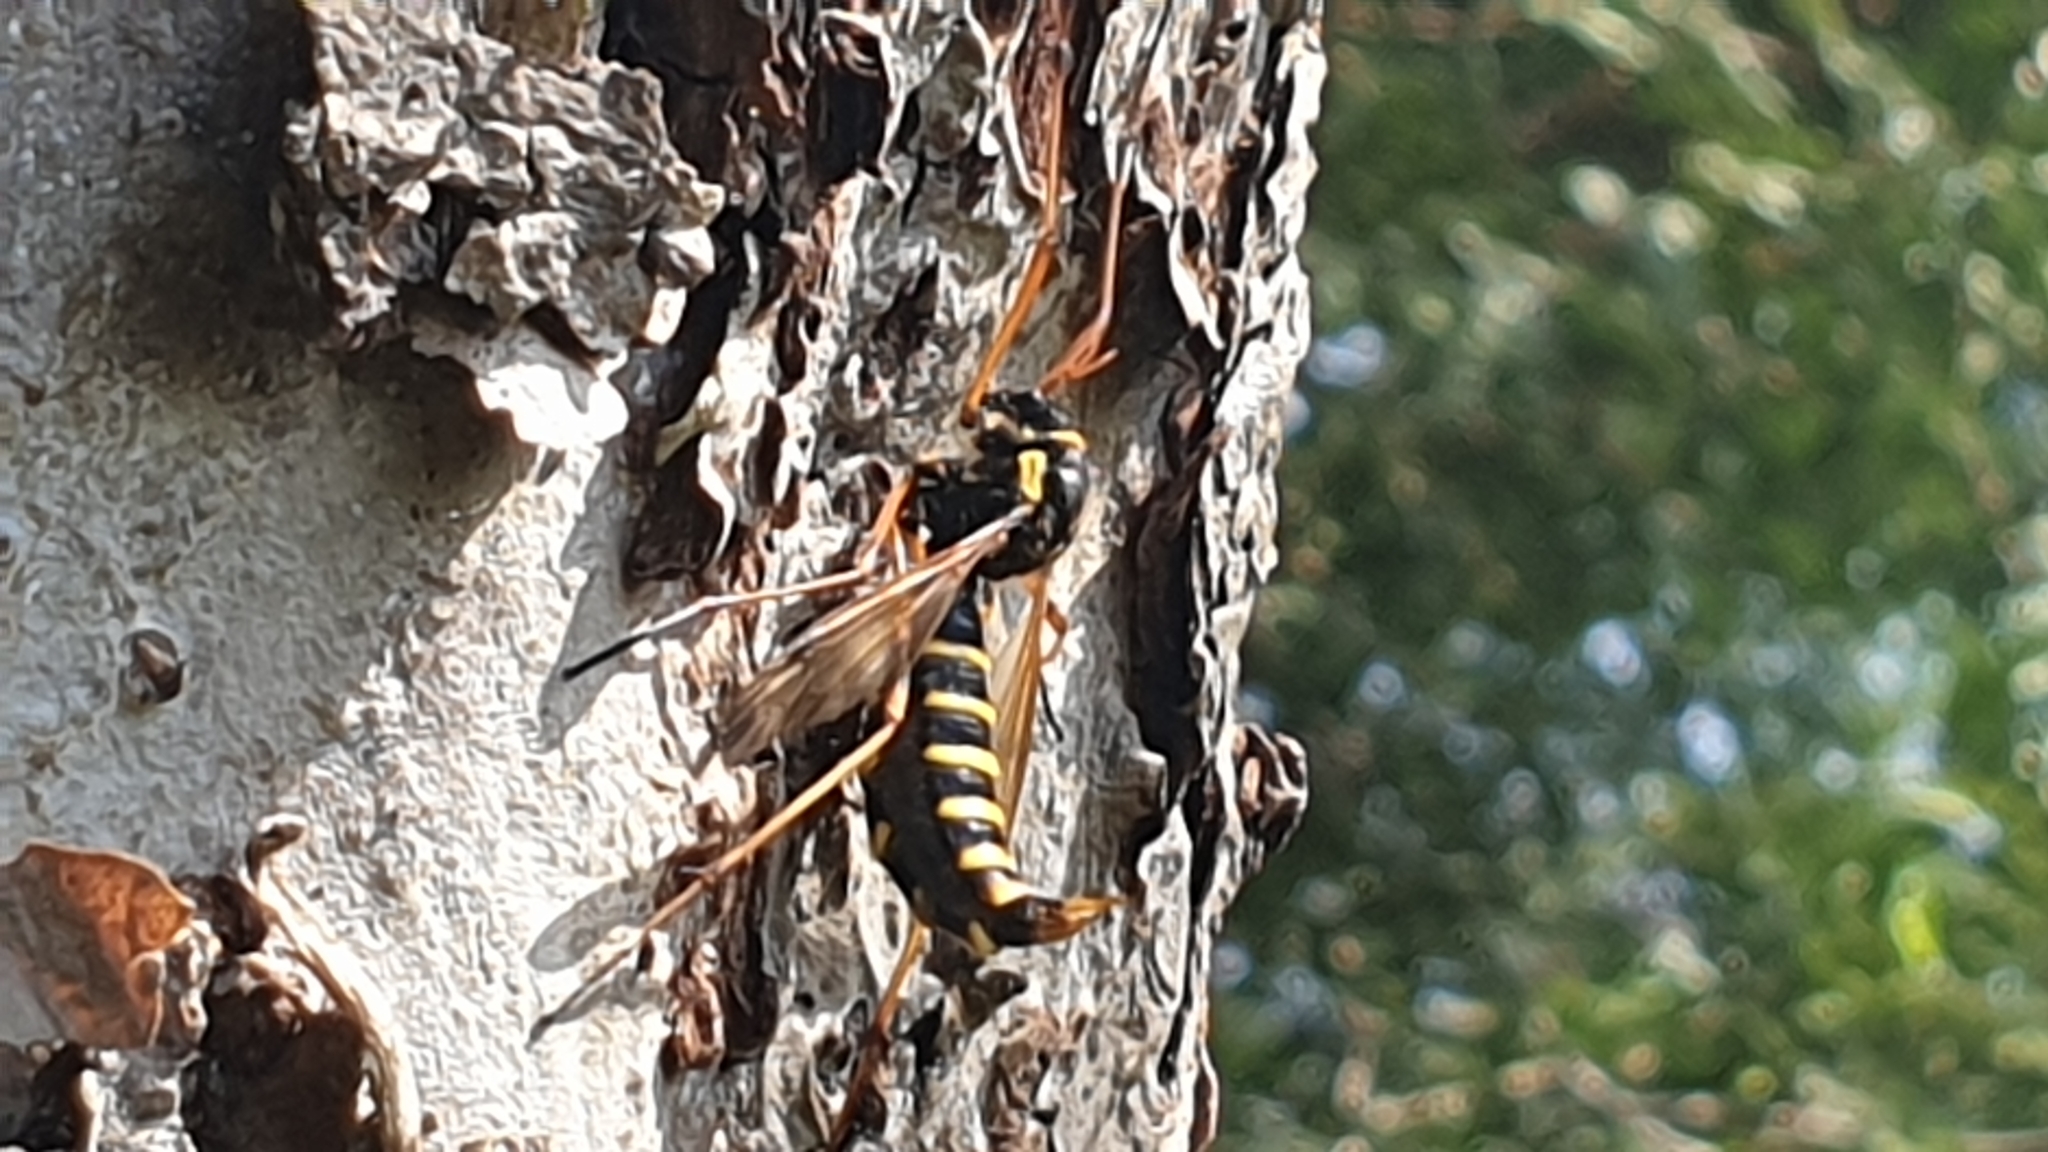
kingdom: Animalia
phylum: Arthropoda
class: Insecta
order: Diptera
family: Tipulidae
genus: Ctenophora
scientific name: Ctenophora flaveolata
